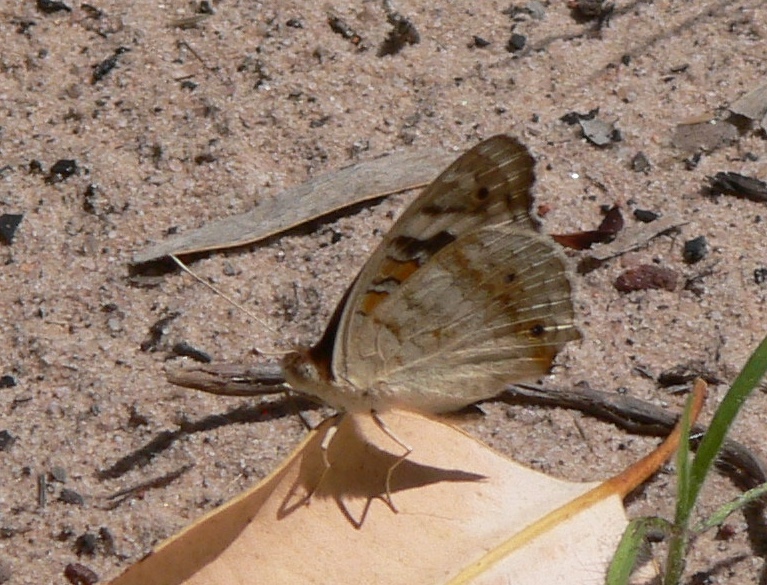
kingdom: Animalia
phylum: Arthropoda
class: Insecta
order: Lepidoptera
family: Nymphalidae
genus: Junonia
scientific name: Junonia orithya
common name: Blue pansy
